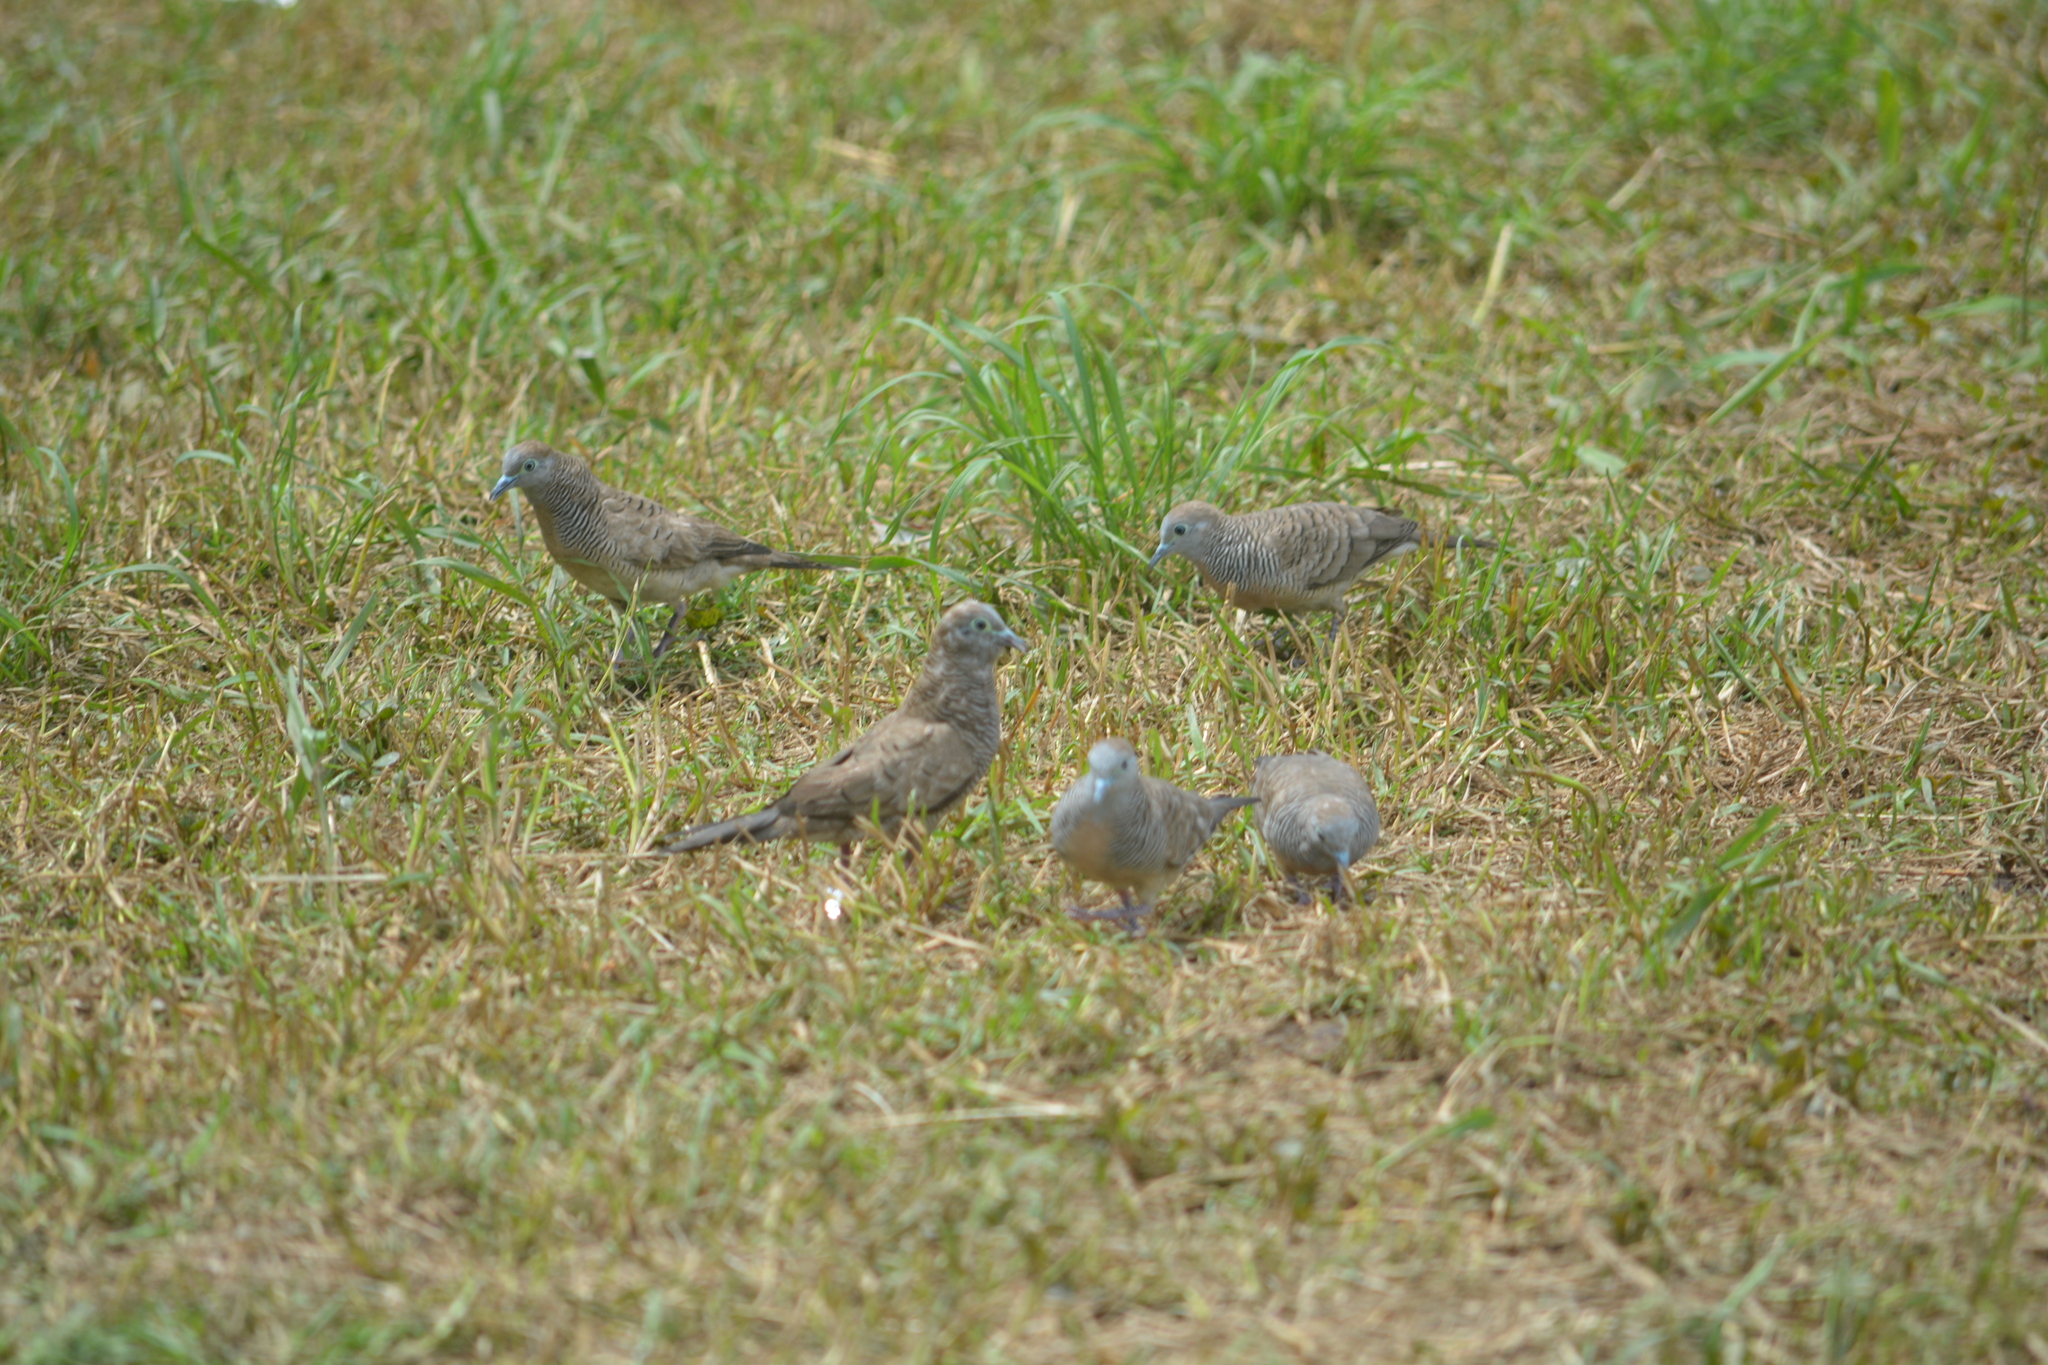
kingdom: Animalia
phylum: Chordata
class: Aves
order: Columbiformes
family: Columbidae
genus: Geopelia
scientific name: Geopelia striata
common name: Zebra dove
